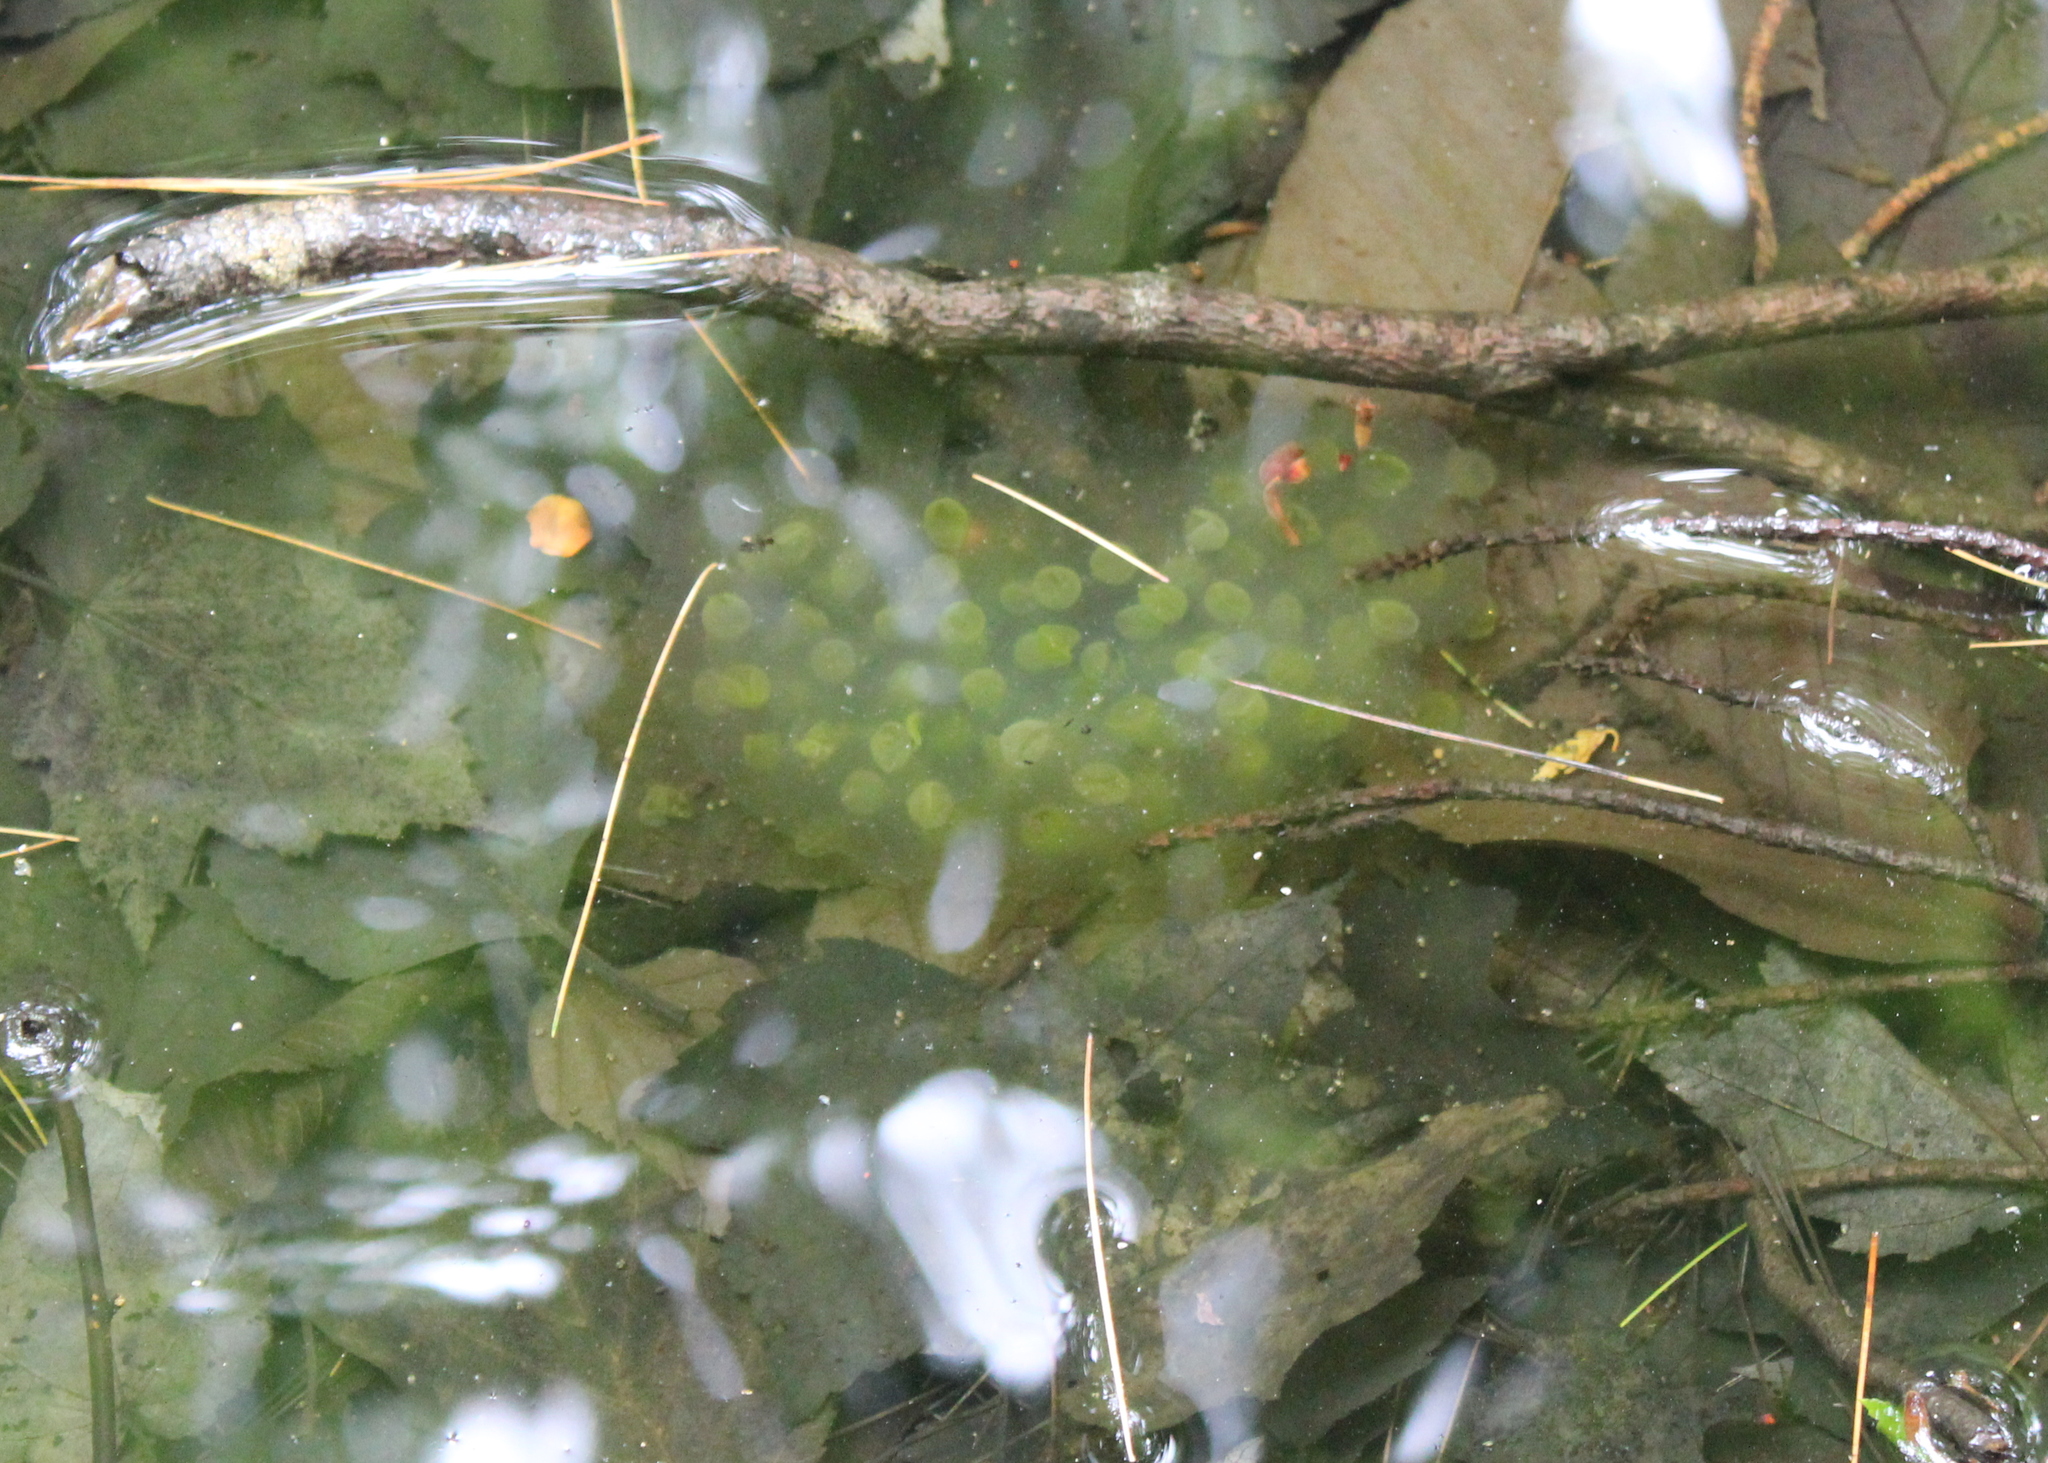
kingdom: Animalia
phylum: Chordata
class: Amphibia
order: Caudata
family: Ambystomatidae
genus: Ambystoma
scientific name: Ambystoma maculatum
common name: Spotted salamander
